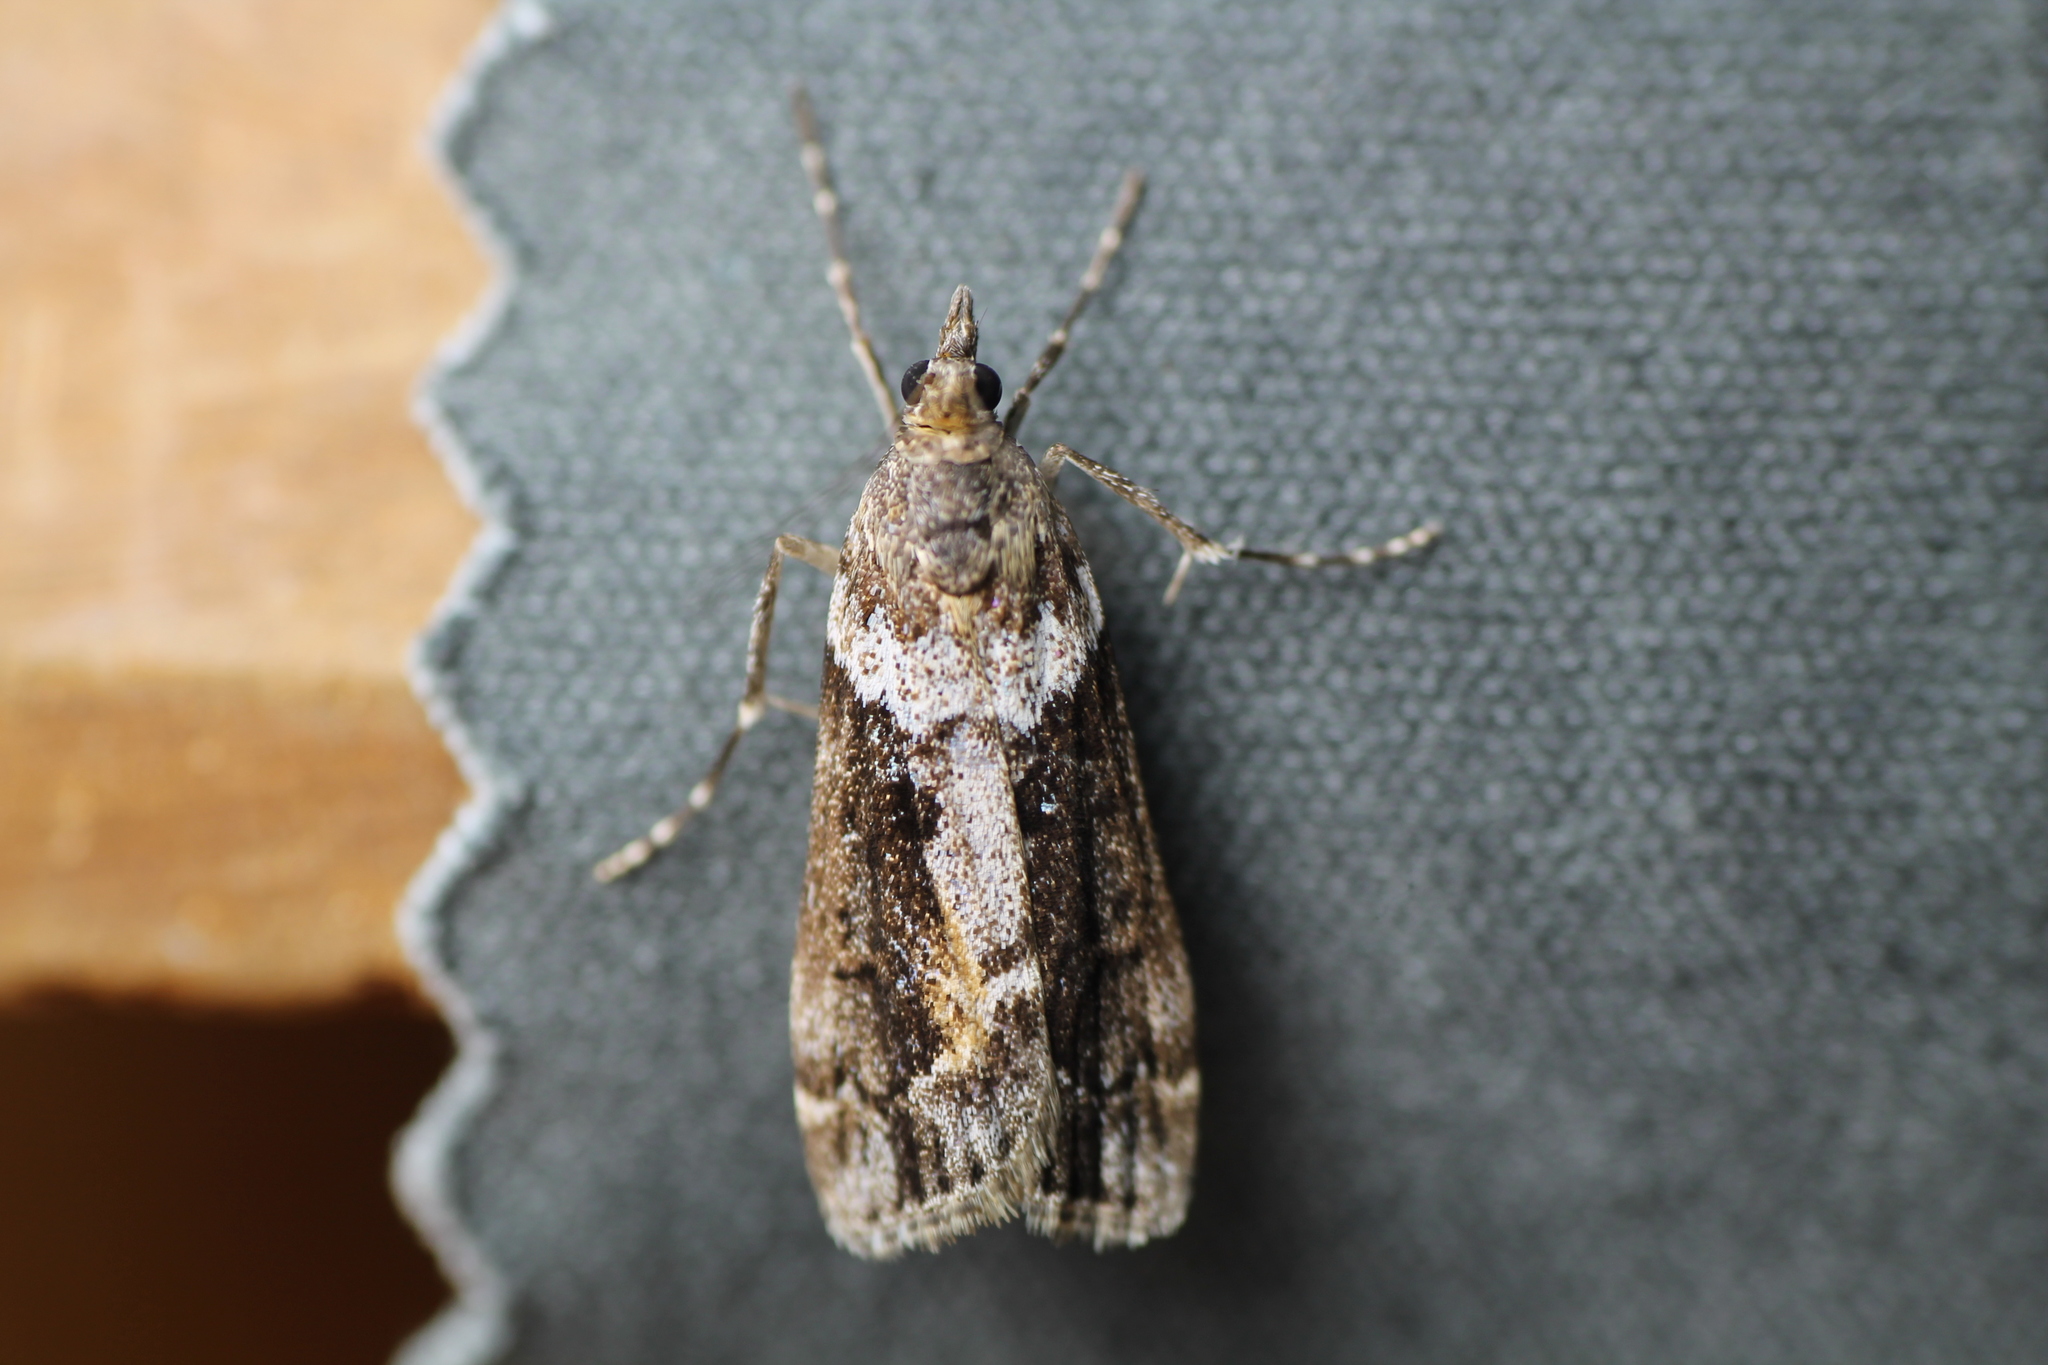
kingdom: Animalia
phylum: Arthropoda
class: Insecta
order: Lepidoptera
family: Crambidae
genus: Eudonia
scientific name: Eudonia submarginalis
